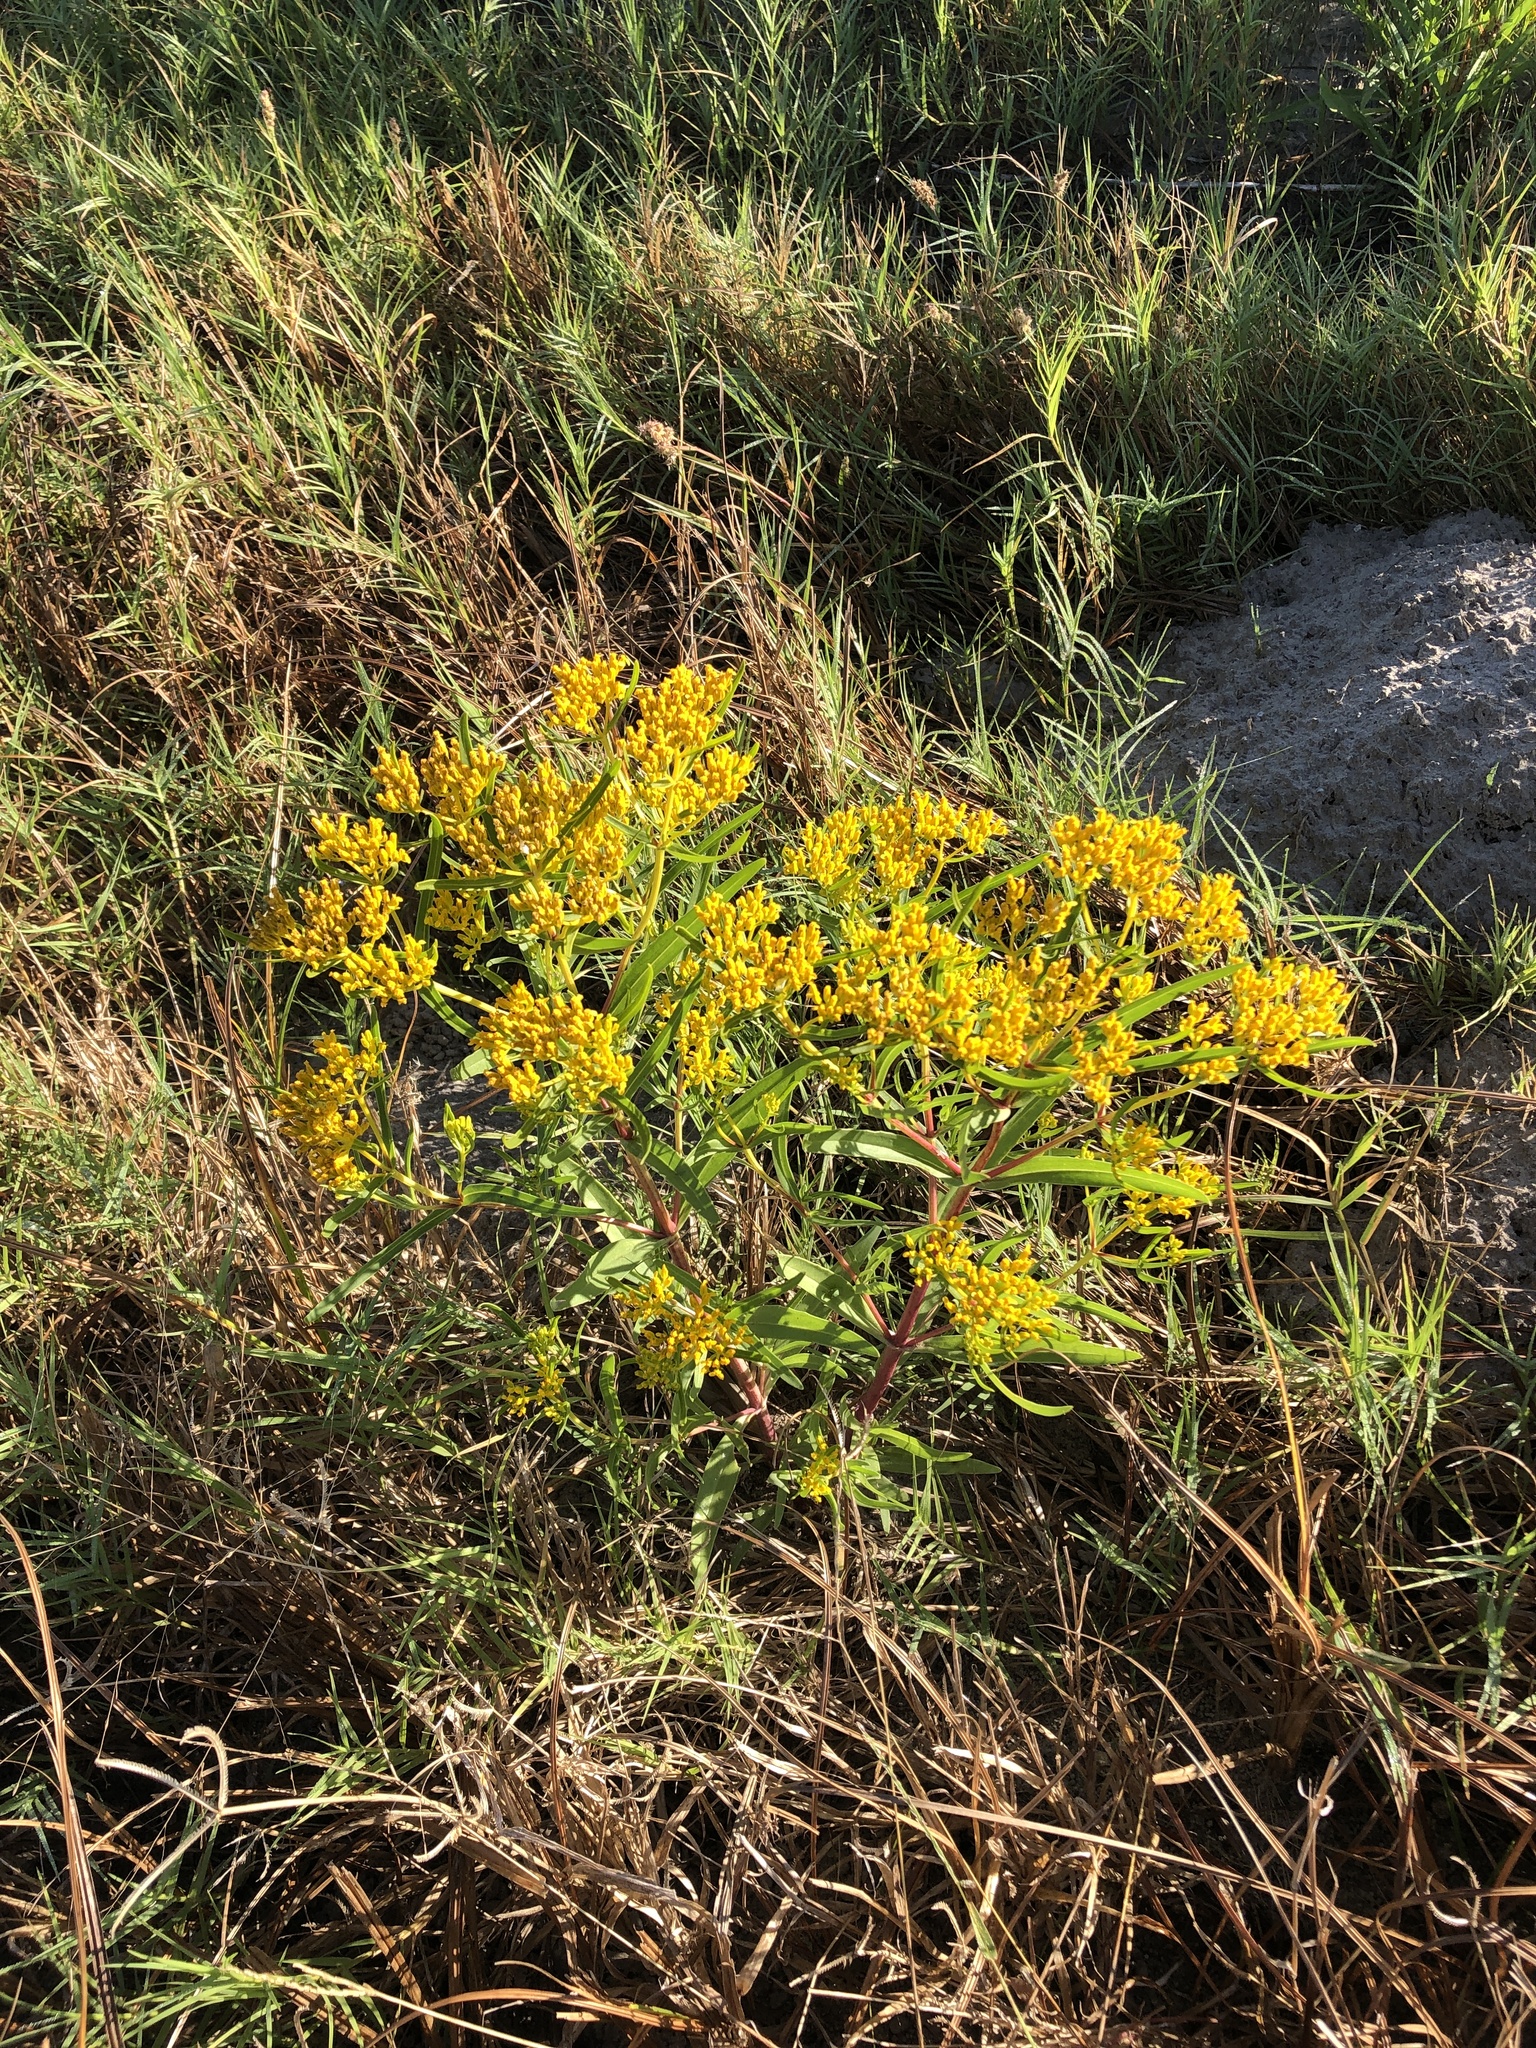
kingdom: Plantae
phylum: Tracheophyta
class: Magnoliopsida
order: Asterales
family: Asteraceae
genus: Flaveria
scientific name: Flaveria brownii
